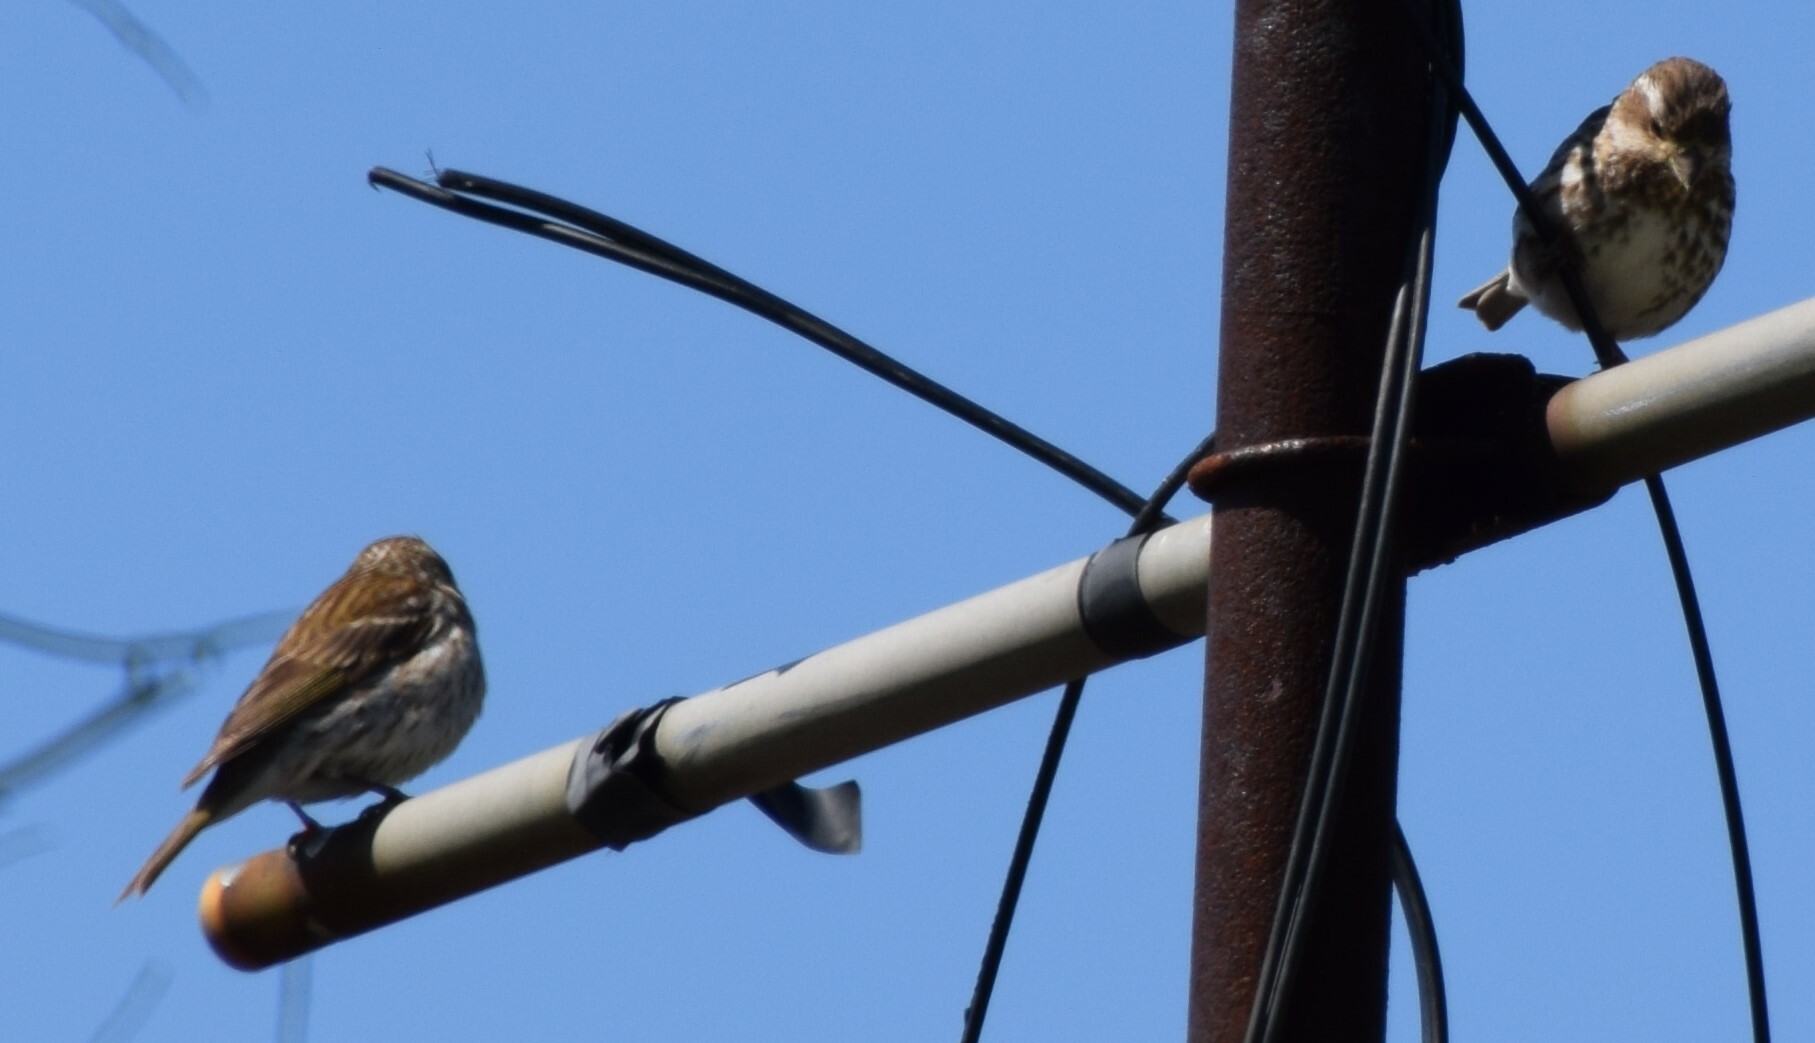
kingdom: Animalia
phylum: Chordata
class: Aves
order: Passeriformes
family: Fringillidae
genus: Haemorhous
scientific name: Haemorhous purpureus
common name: Purple finch
